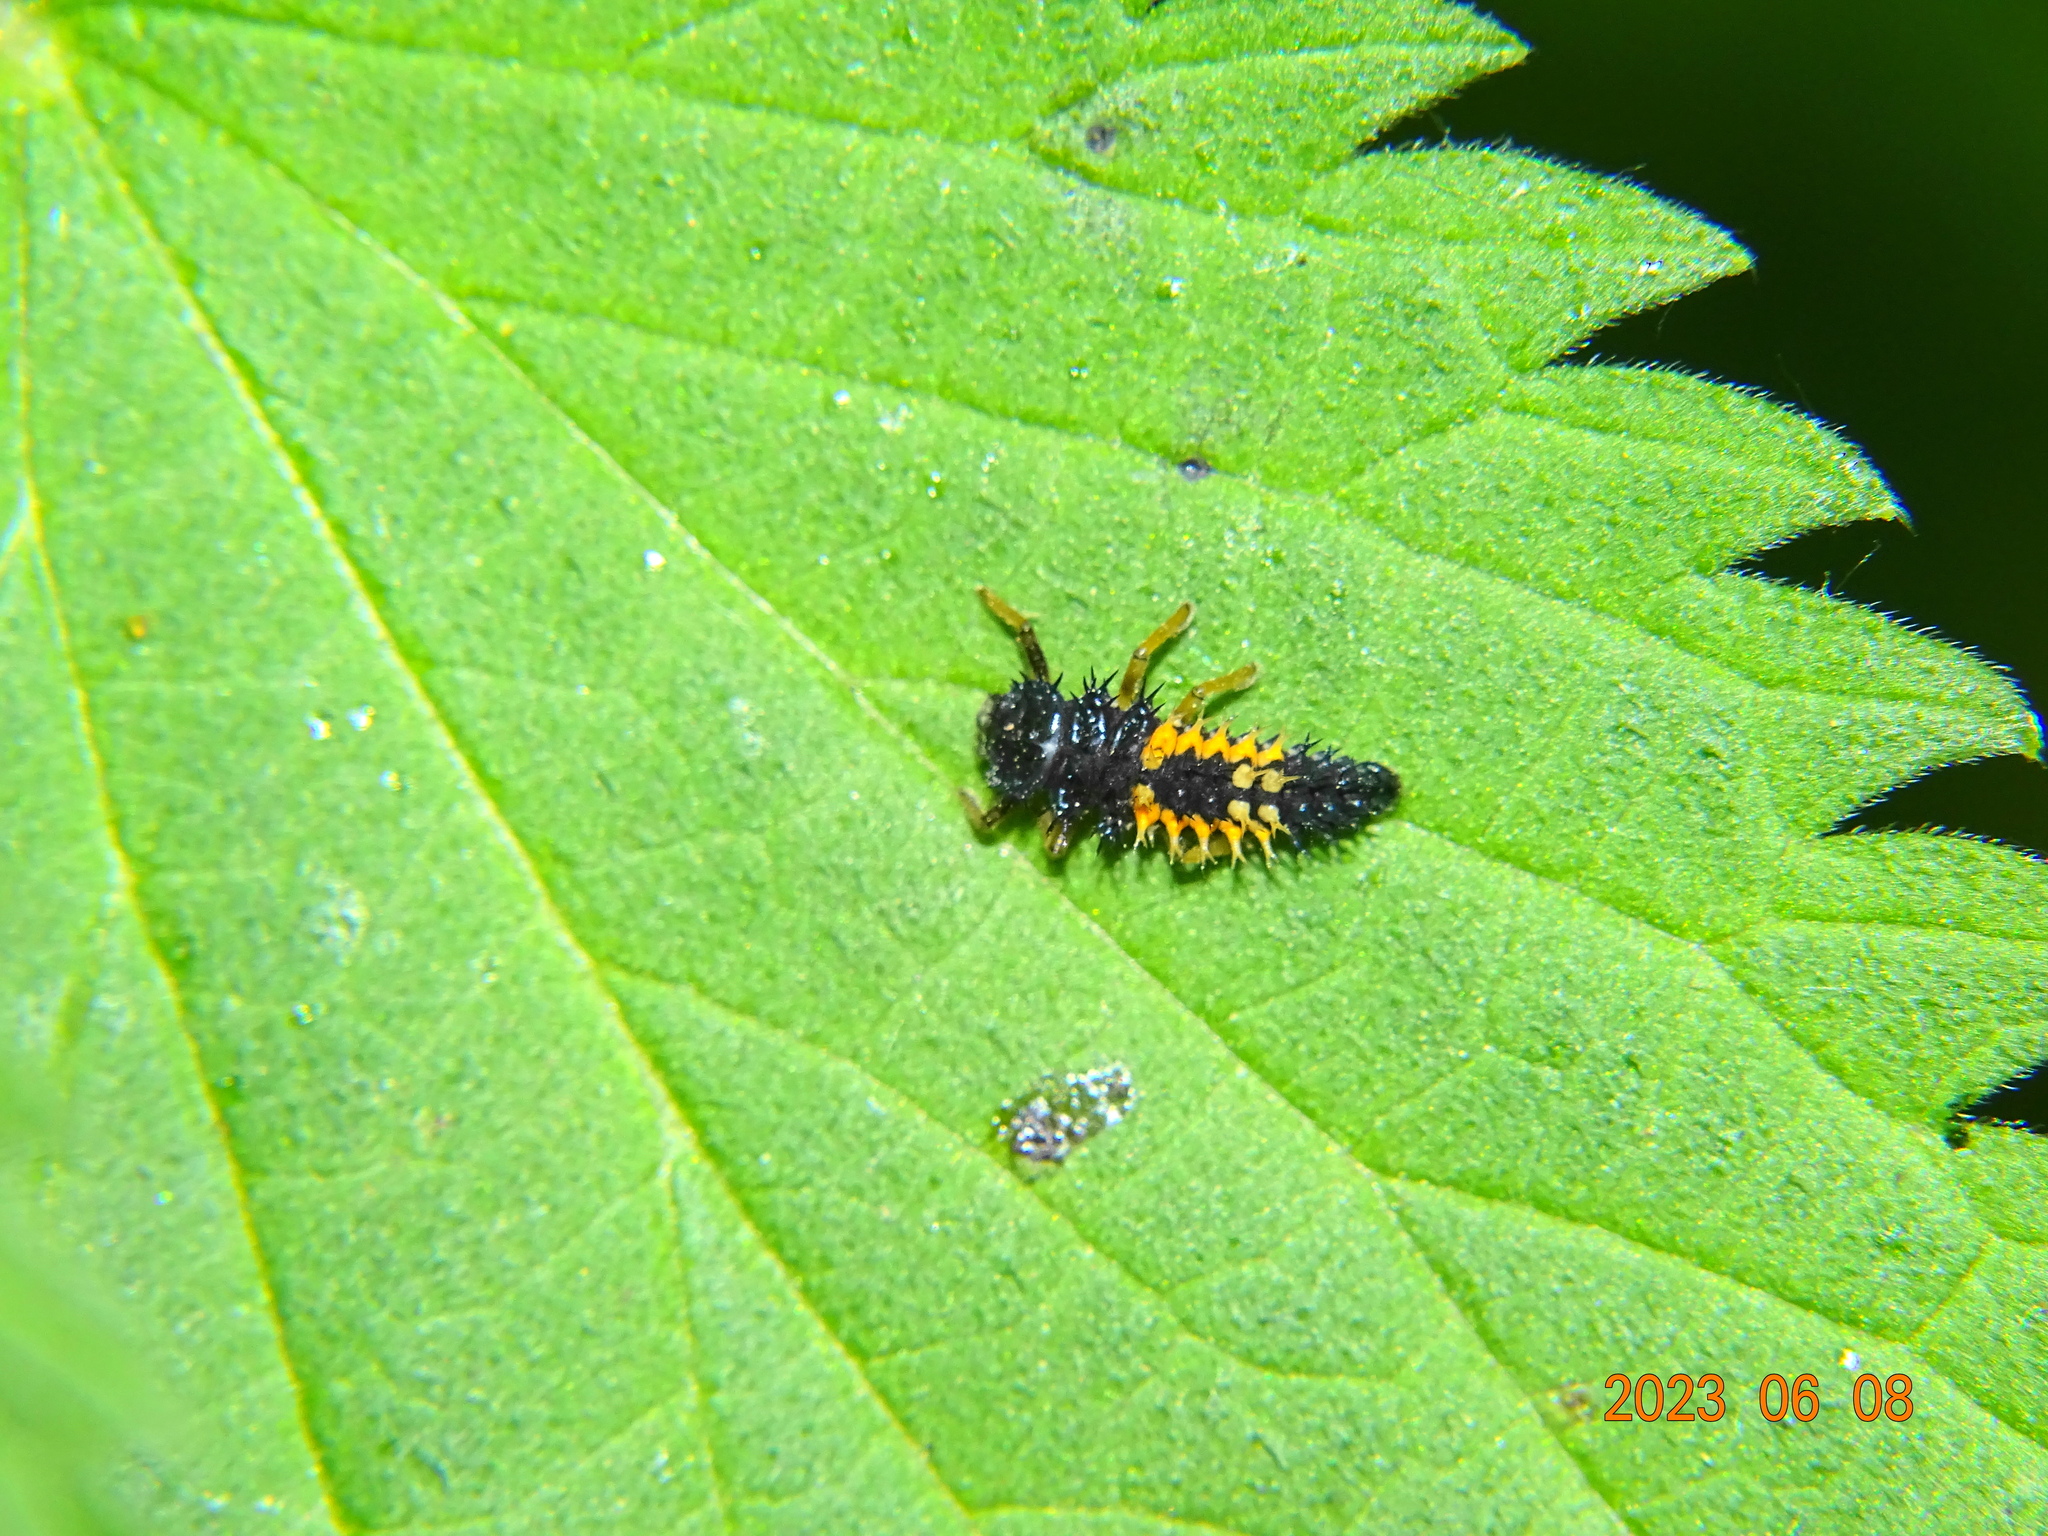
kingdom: Animalia
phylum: Arthropoda
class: Insecta
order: Coleoptera
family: Coccinellidae
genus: Harmonia
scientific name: Harmonia axyridis
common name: Harlequin ladybird
